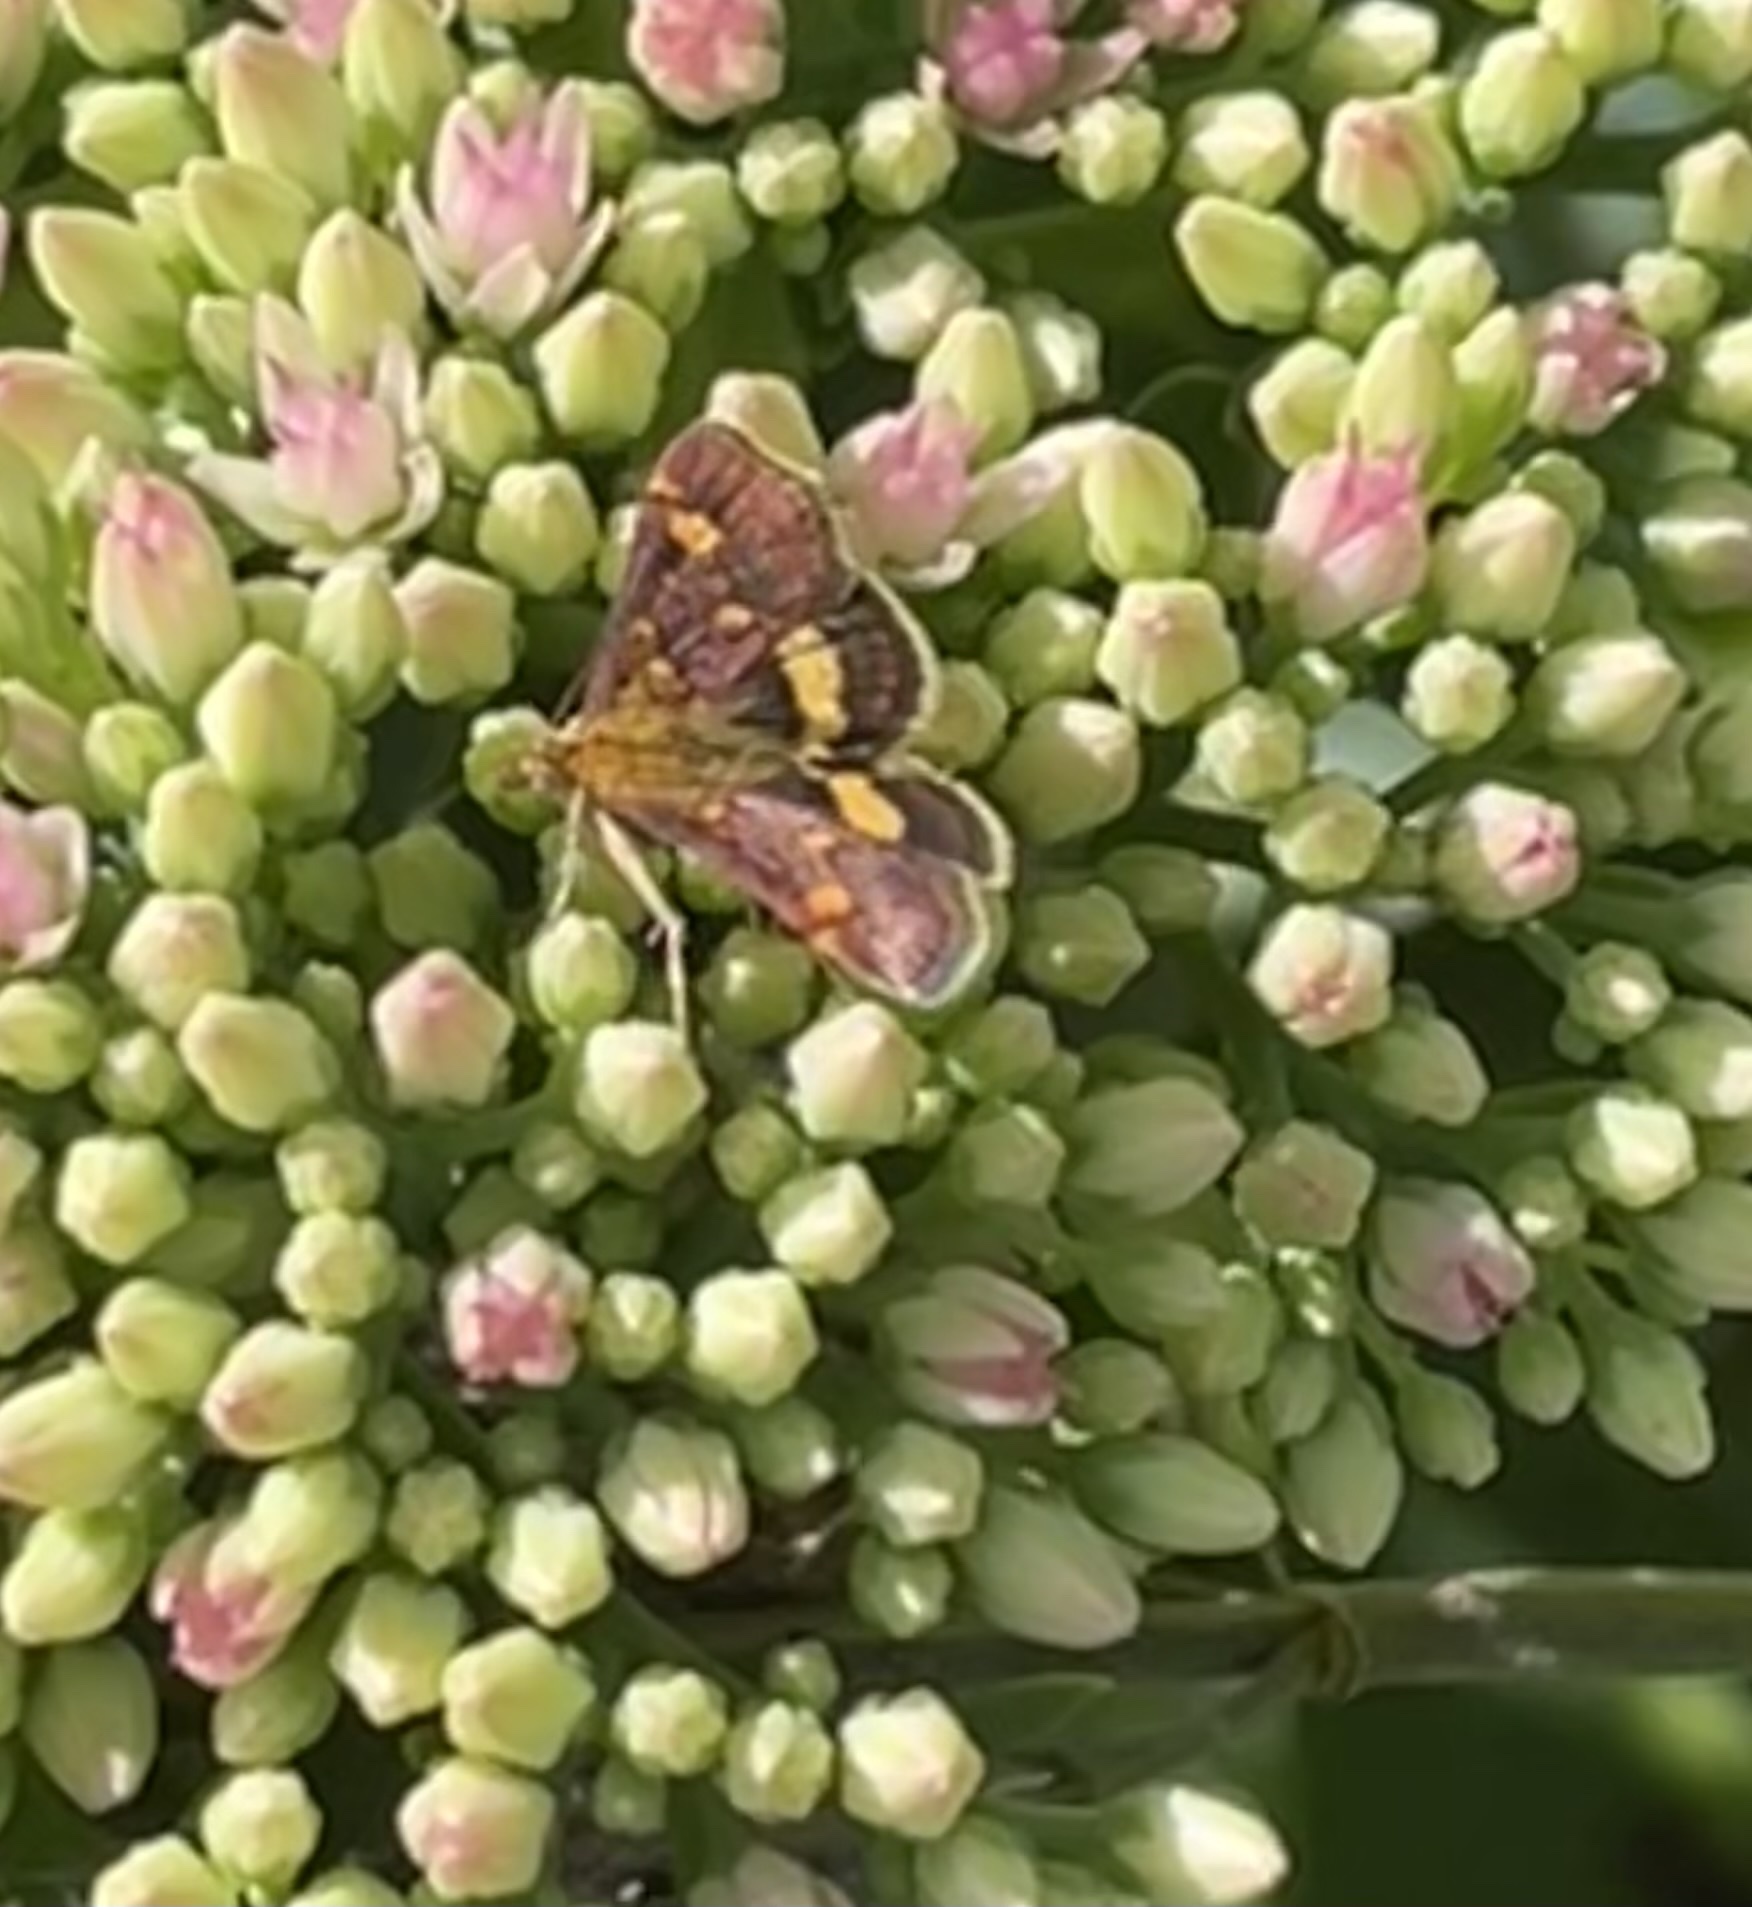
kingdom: Animalia
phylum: Arthropoda
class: Insecta
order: Lepidoptera
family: Crambidae
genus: Pyrausta
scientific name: Pyrausta aurata
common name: Small purple & gold
